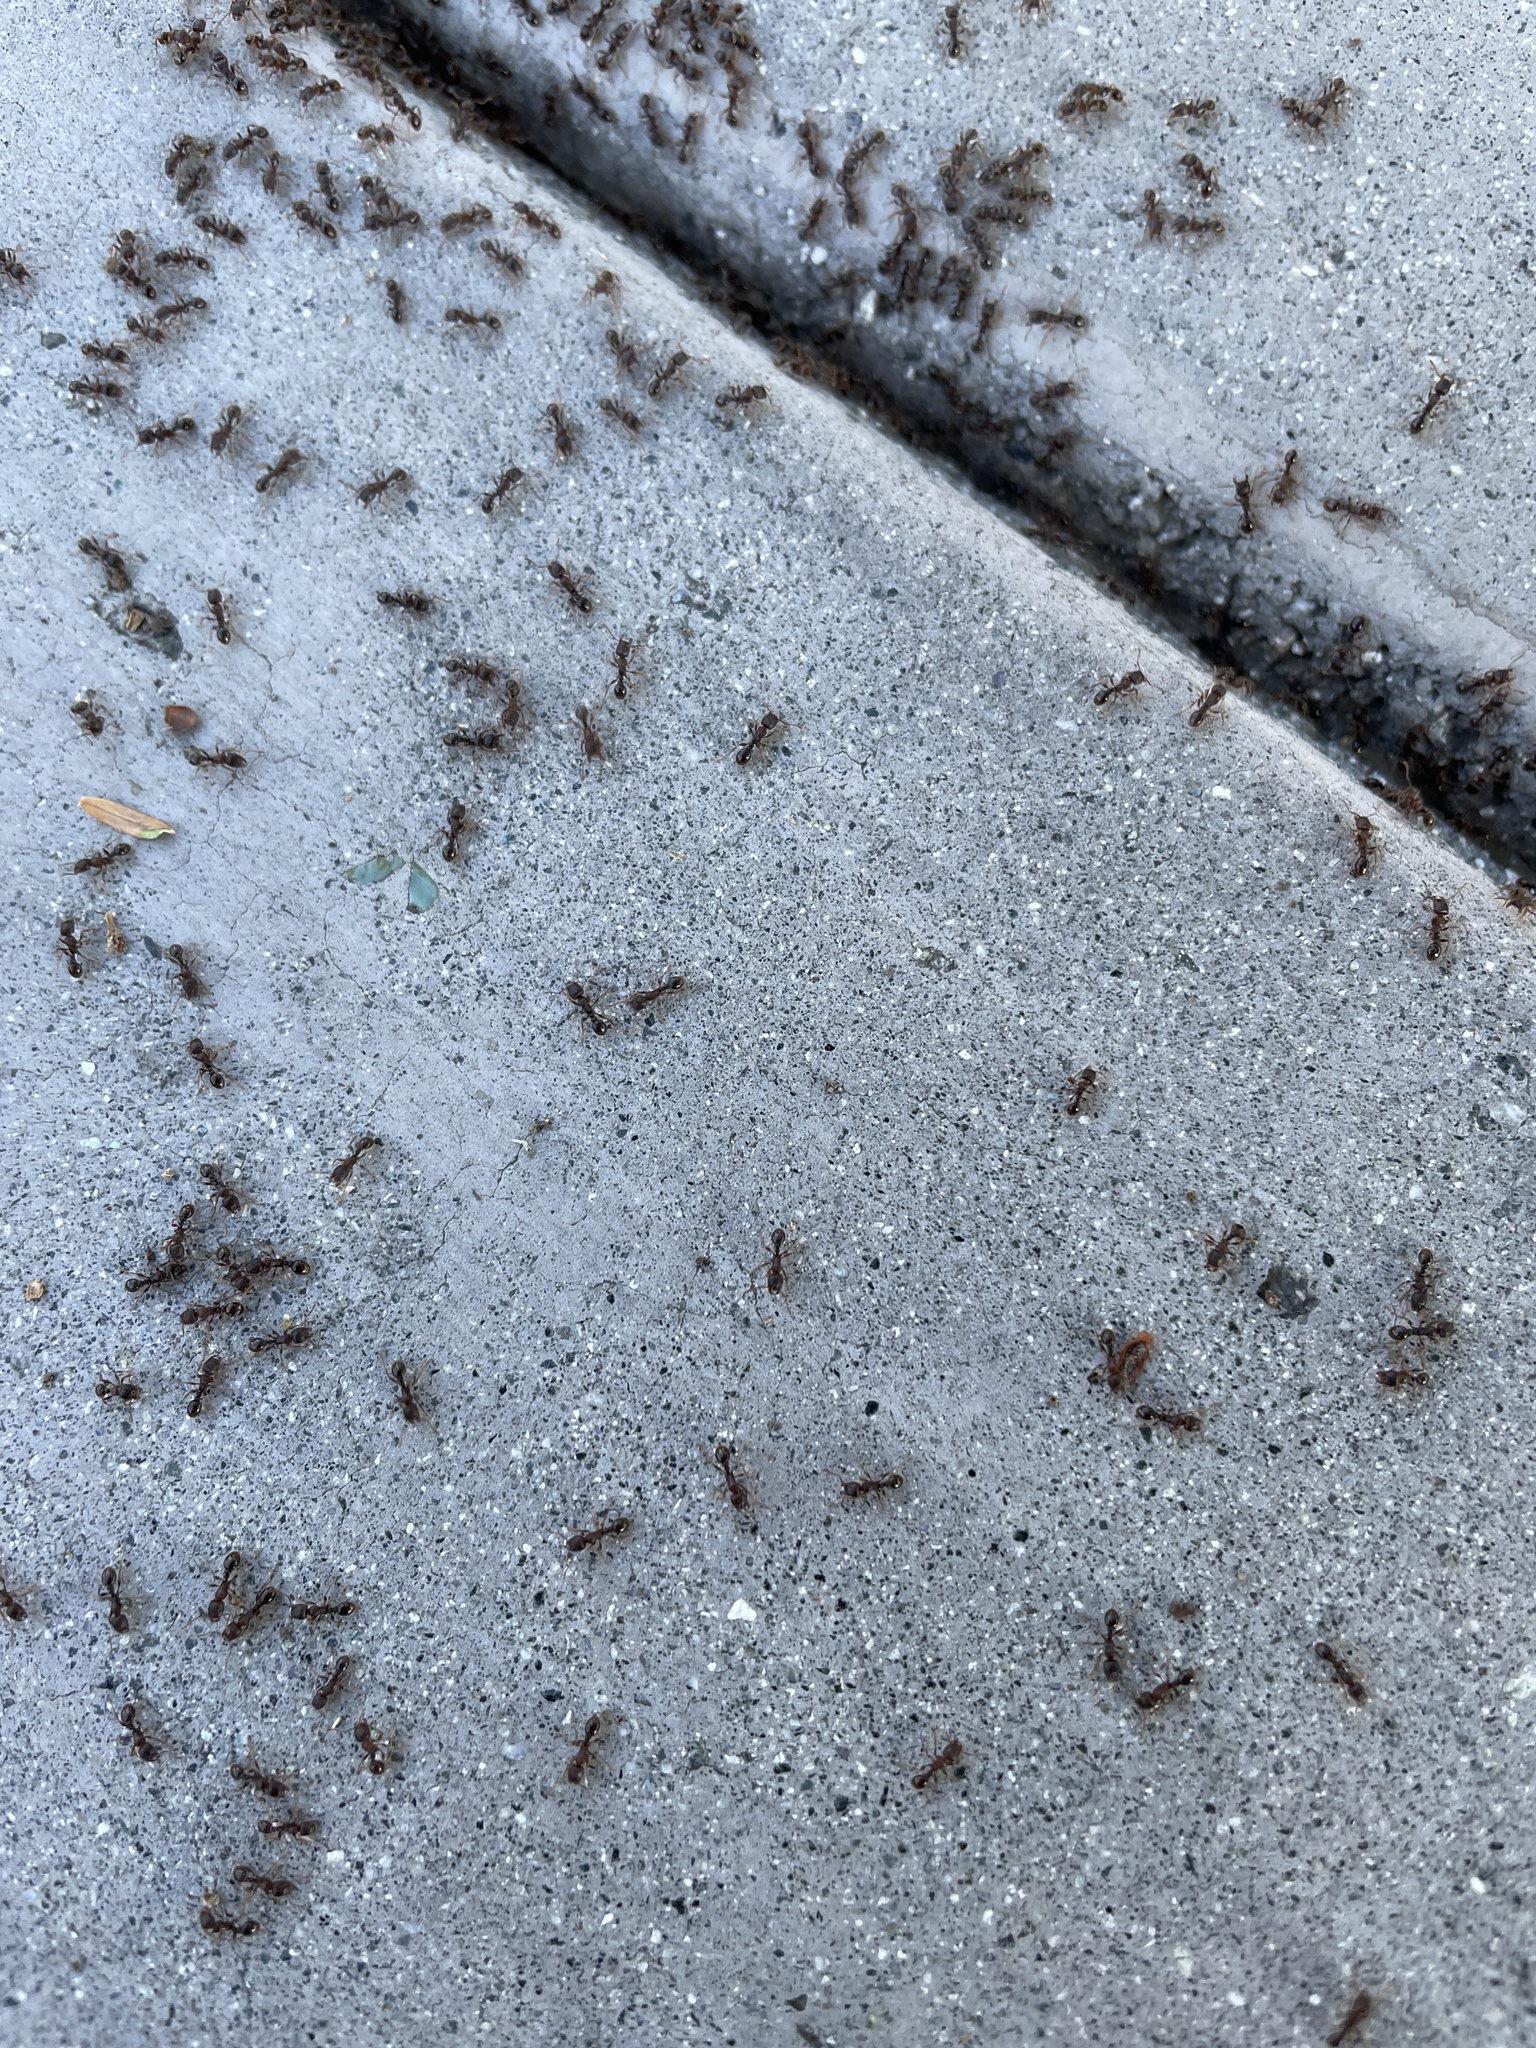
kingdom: Animalia
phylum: Arthropoda
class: Insecta
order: Hymenoptera
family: Formicidae
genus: Tetramorium
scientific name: Tetramorium immigrans
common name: Pavement ant
